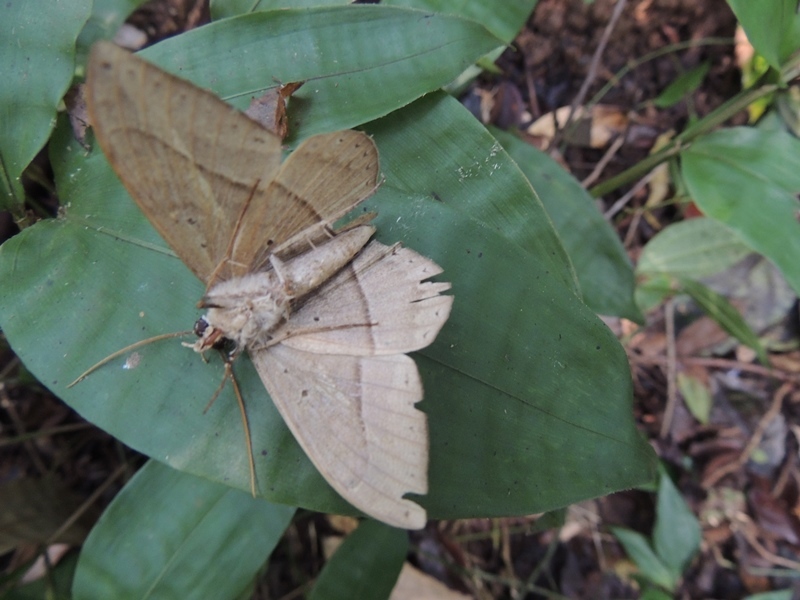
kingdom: Animalia
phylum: Arthropoda
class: Insecta
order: Lepidoptera
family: Erebidae
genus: Hemeroblemma
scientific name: Hemeroblemma opigena
